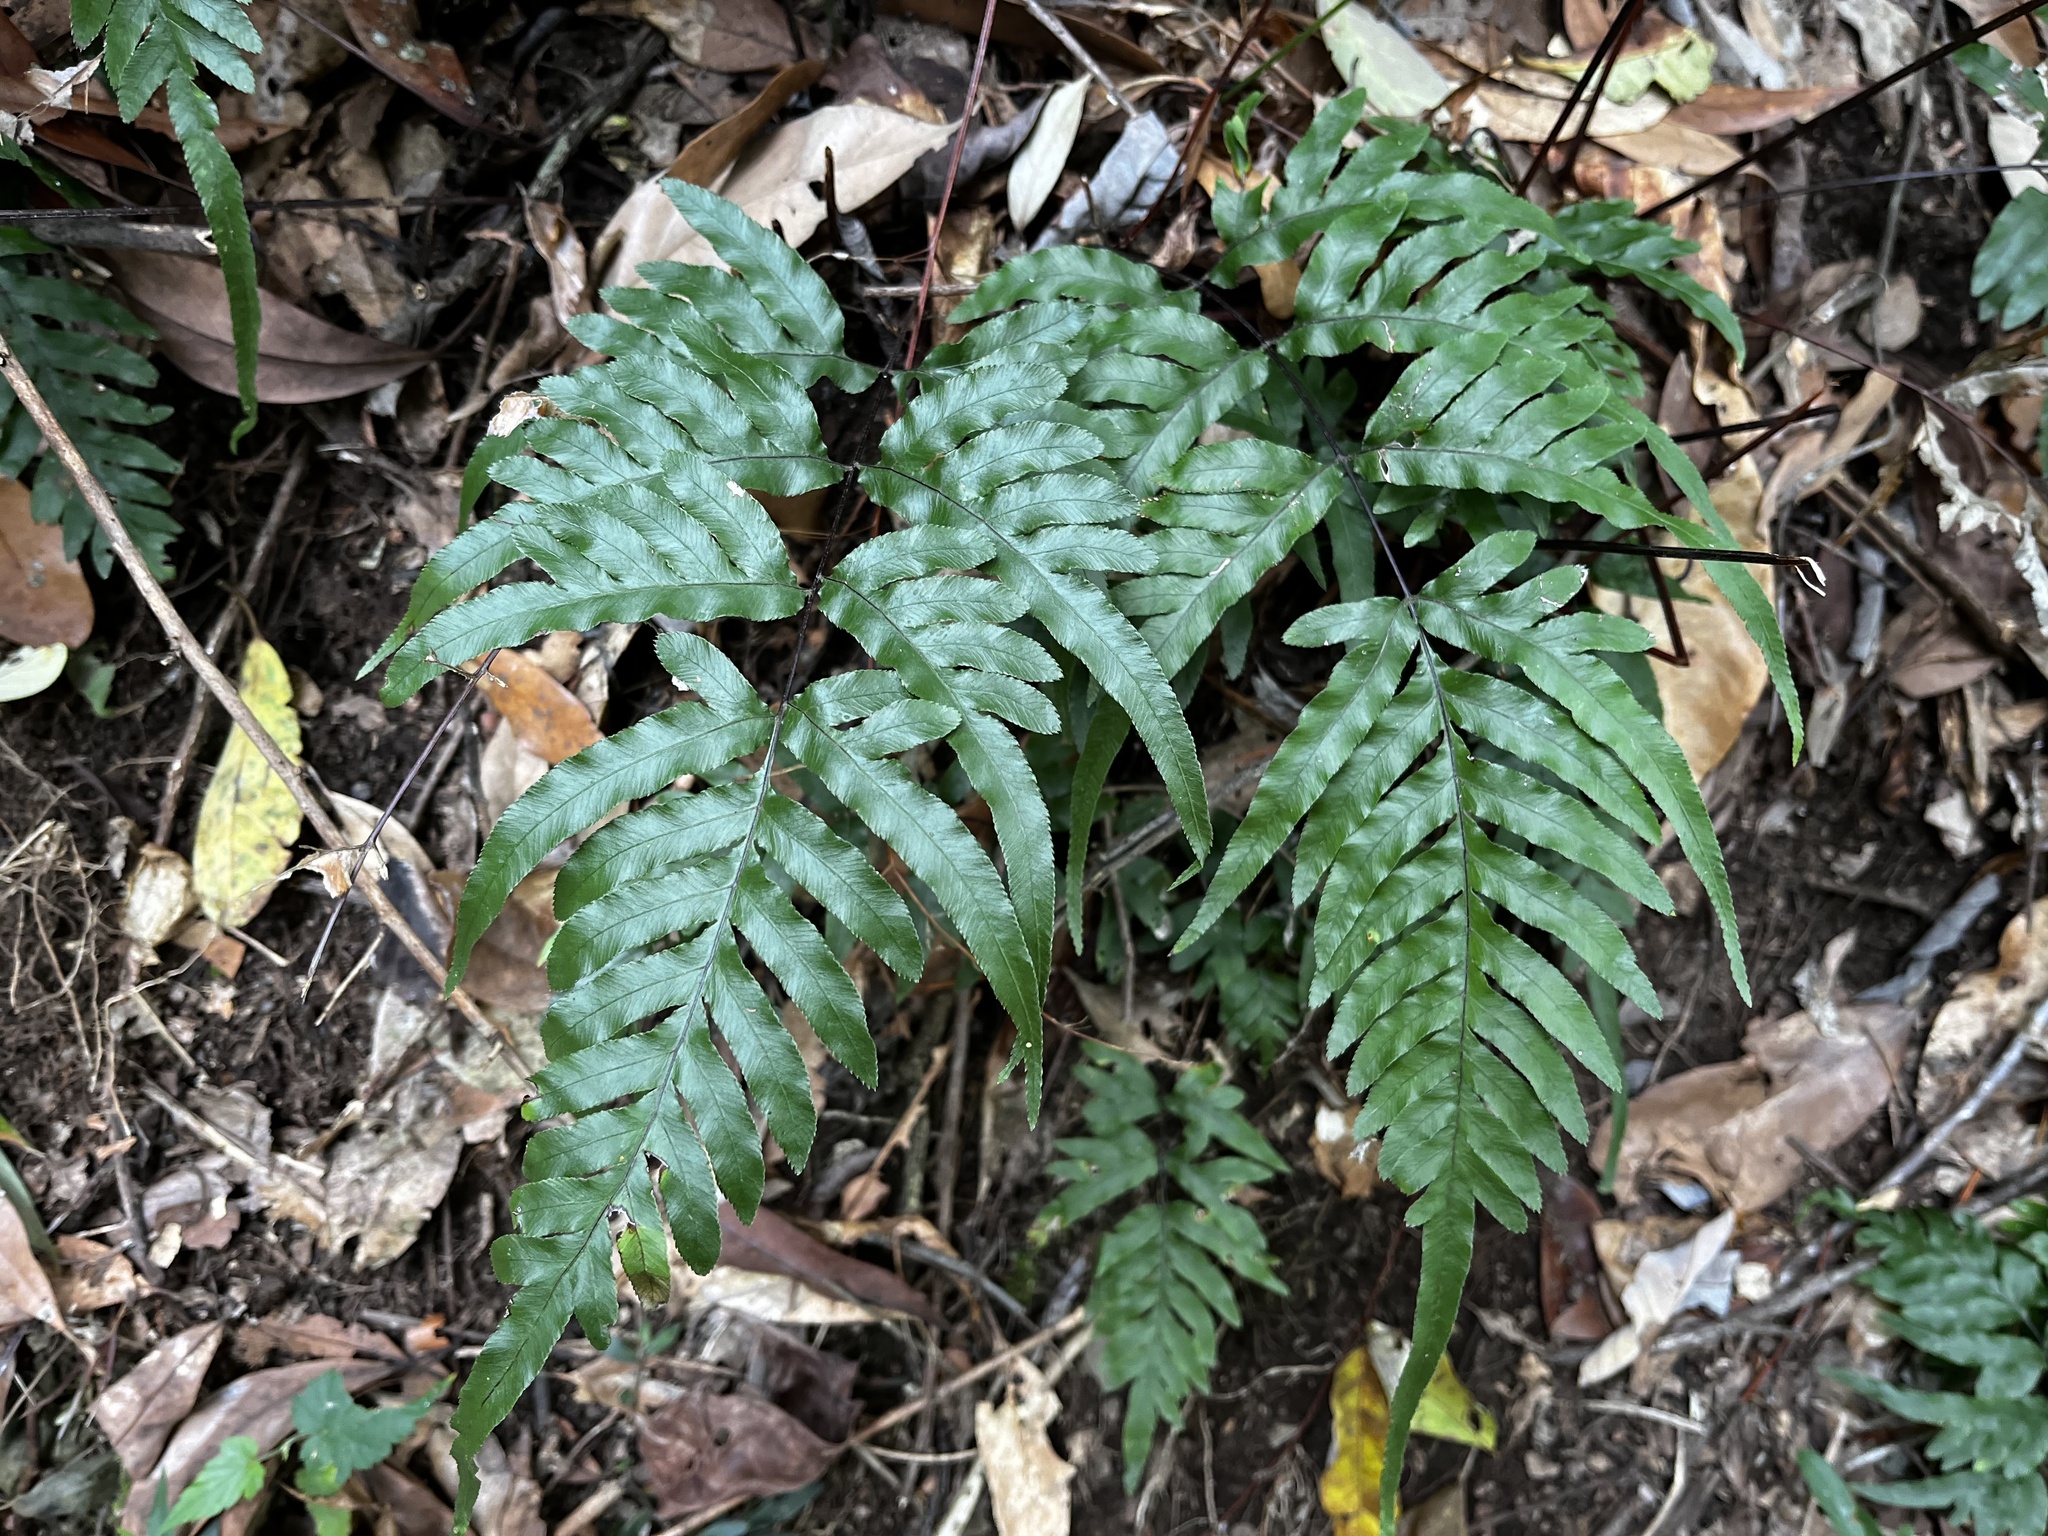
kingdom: Plantae
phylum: Tracheophyta
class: Polypodiopsida
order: Polypodiales
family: Pteridaceae
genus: Pteris
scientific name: Pteris semipinnata
